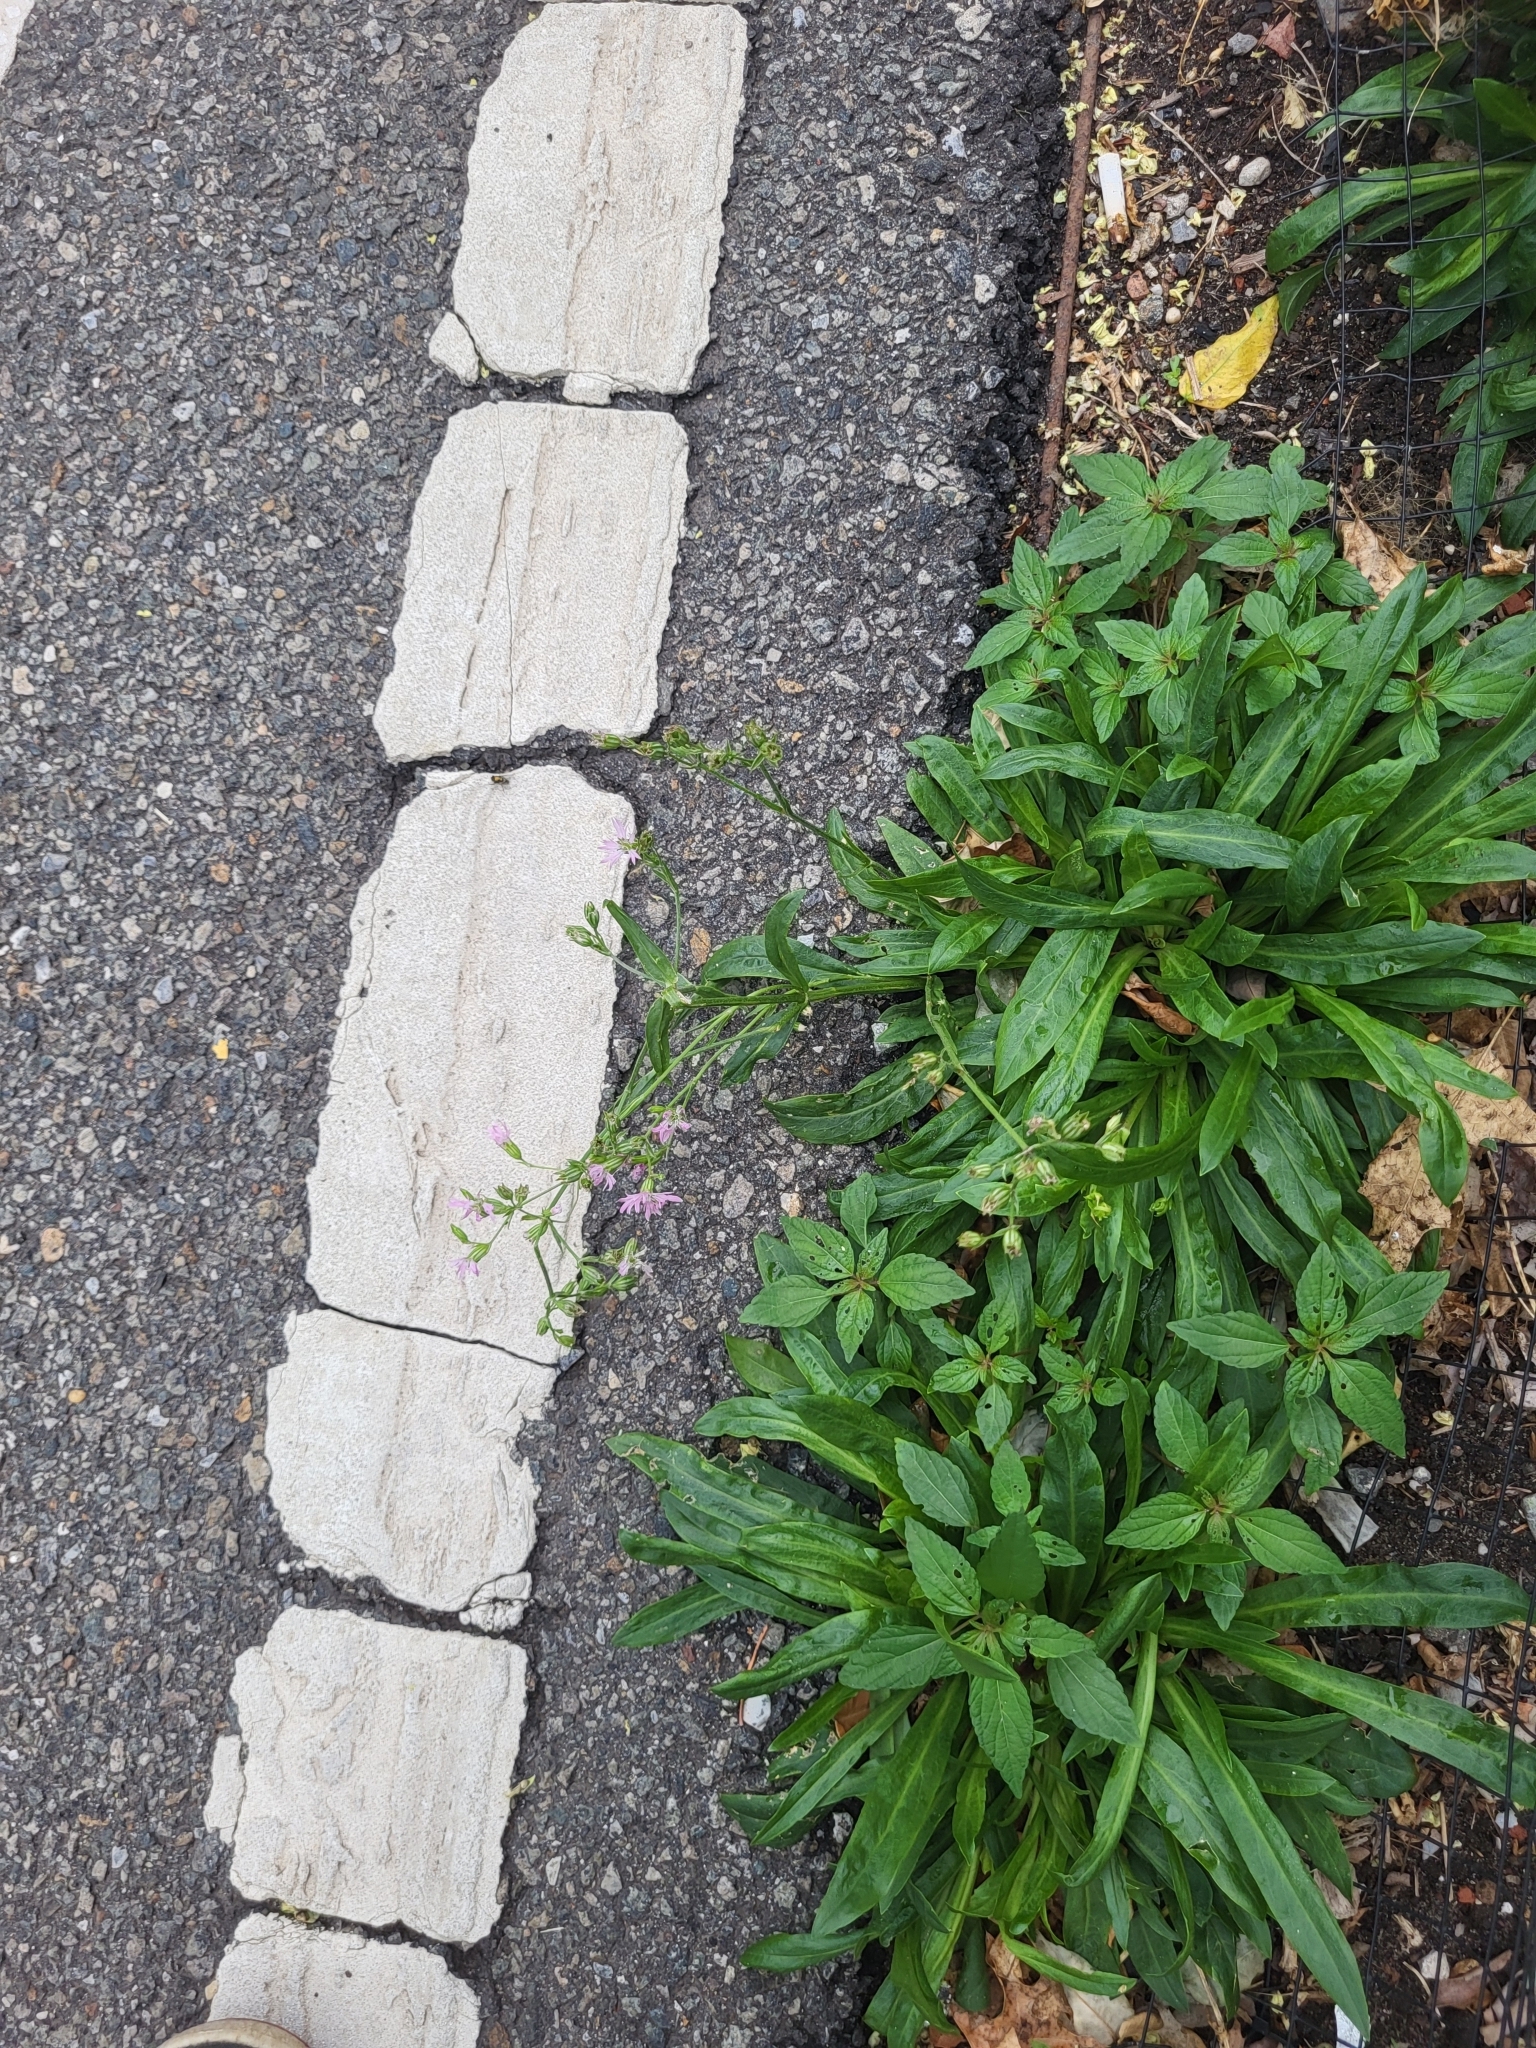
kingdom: Plantae
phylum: Tracheophyta
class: Magnoliopsida
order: Caryophyllales
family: Caryophyllaceae
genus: Silene
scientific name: Silene flos-cuculi
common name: Ragged-robin
